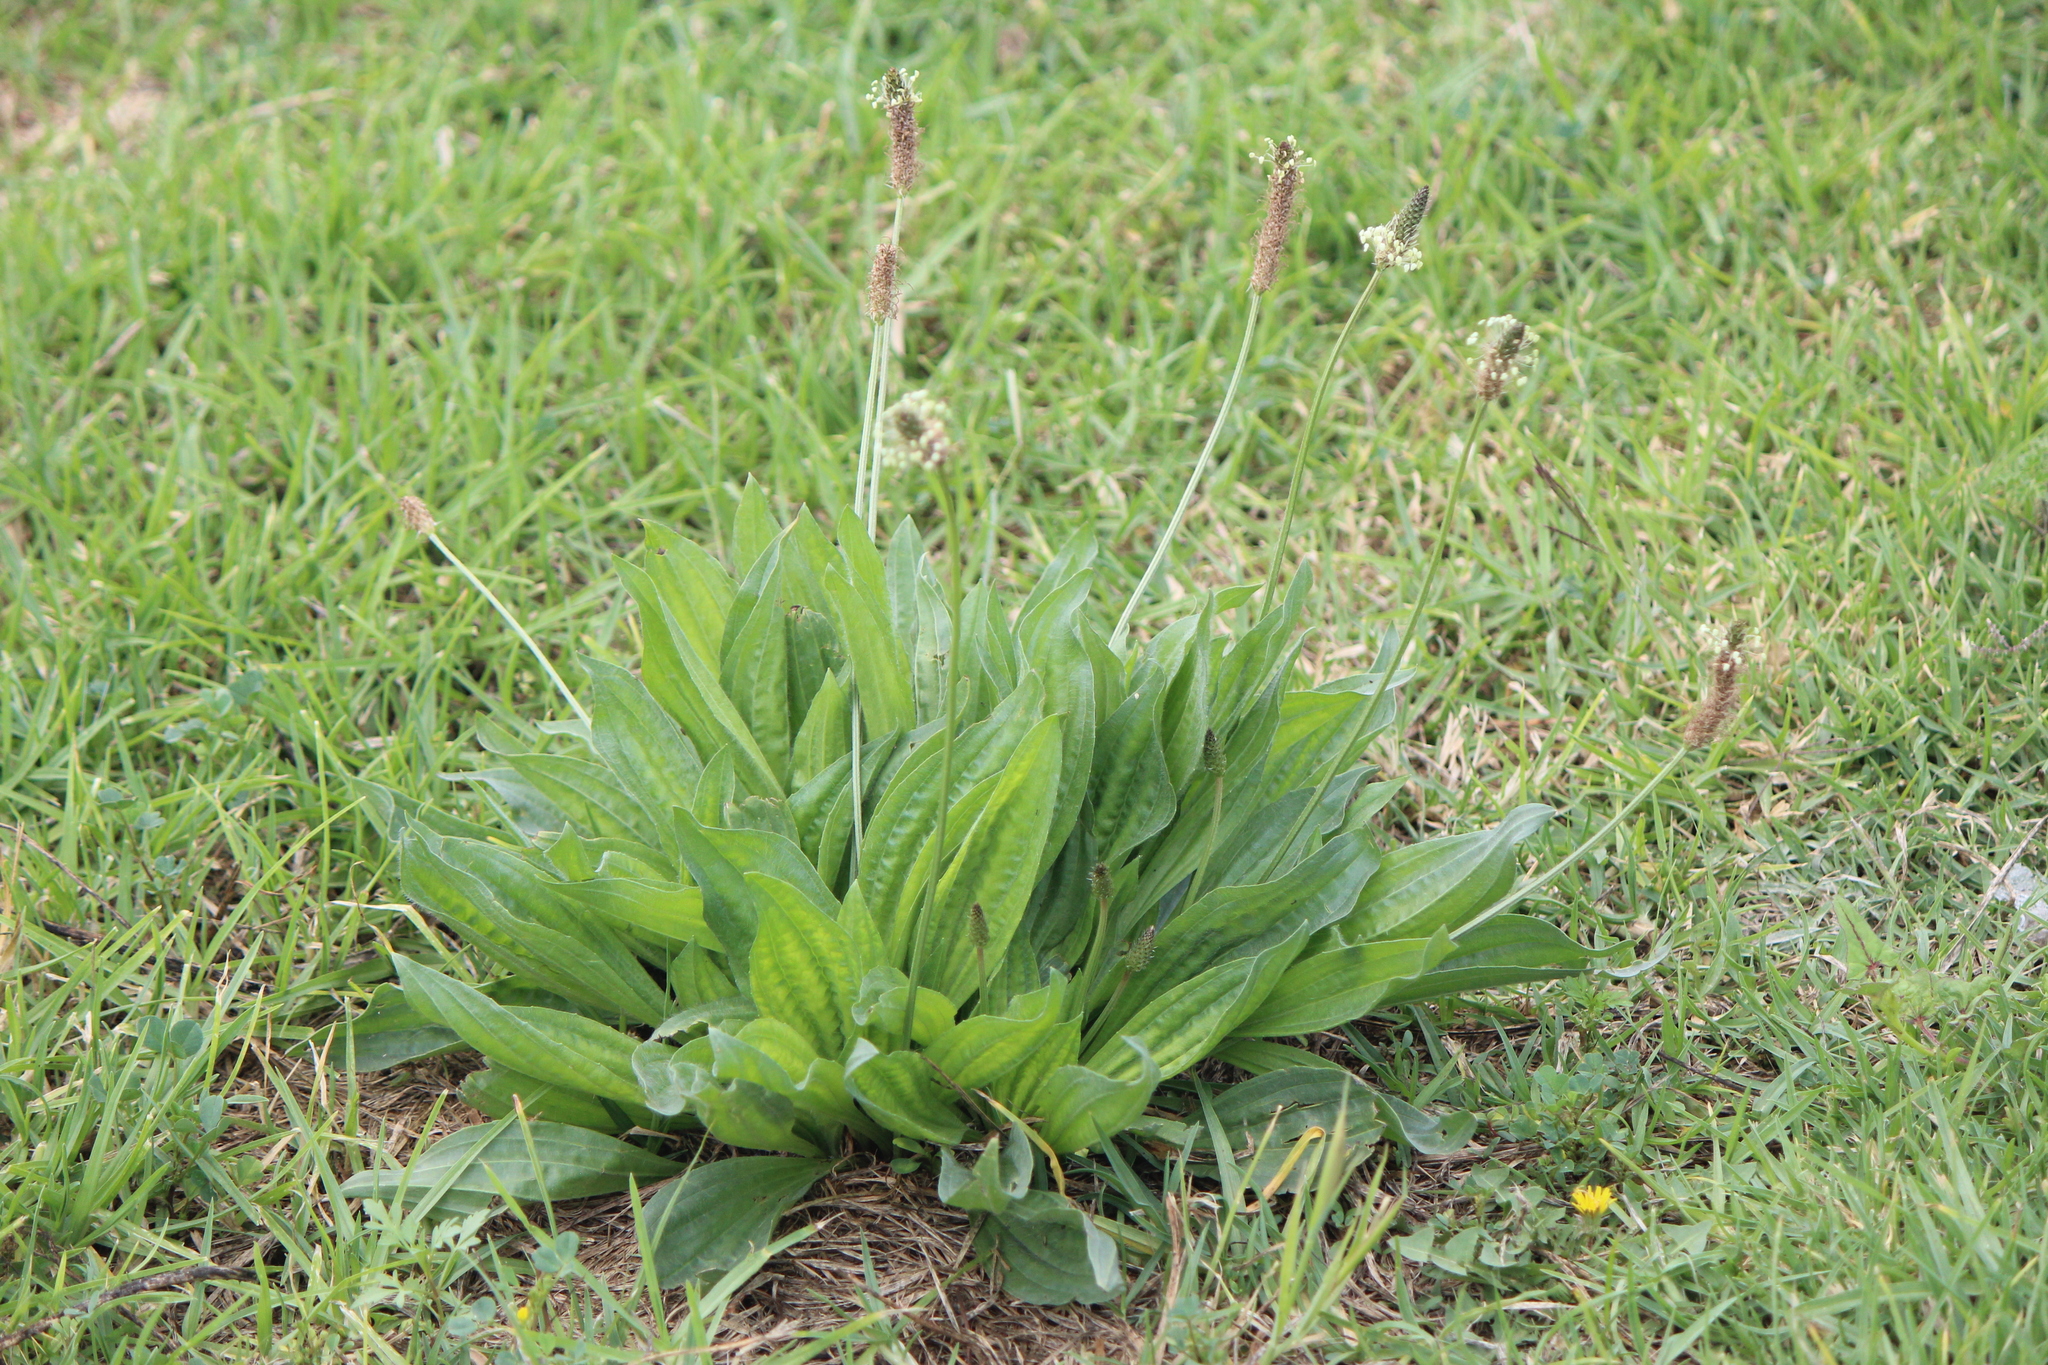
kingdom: Plantae
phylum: Tracheophyta
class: Magnoliopsida
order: Lamiales
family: Plantaginaceae
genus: Plantago
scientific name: Plantago lanceolata
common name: Ribwort plantain
